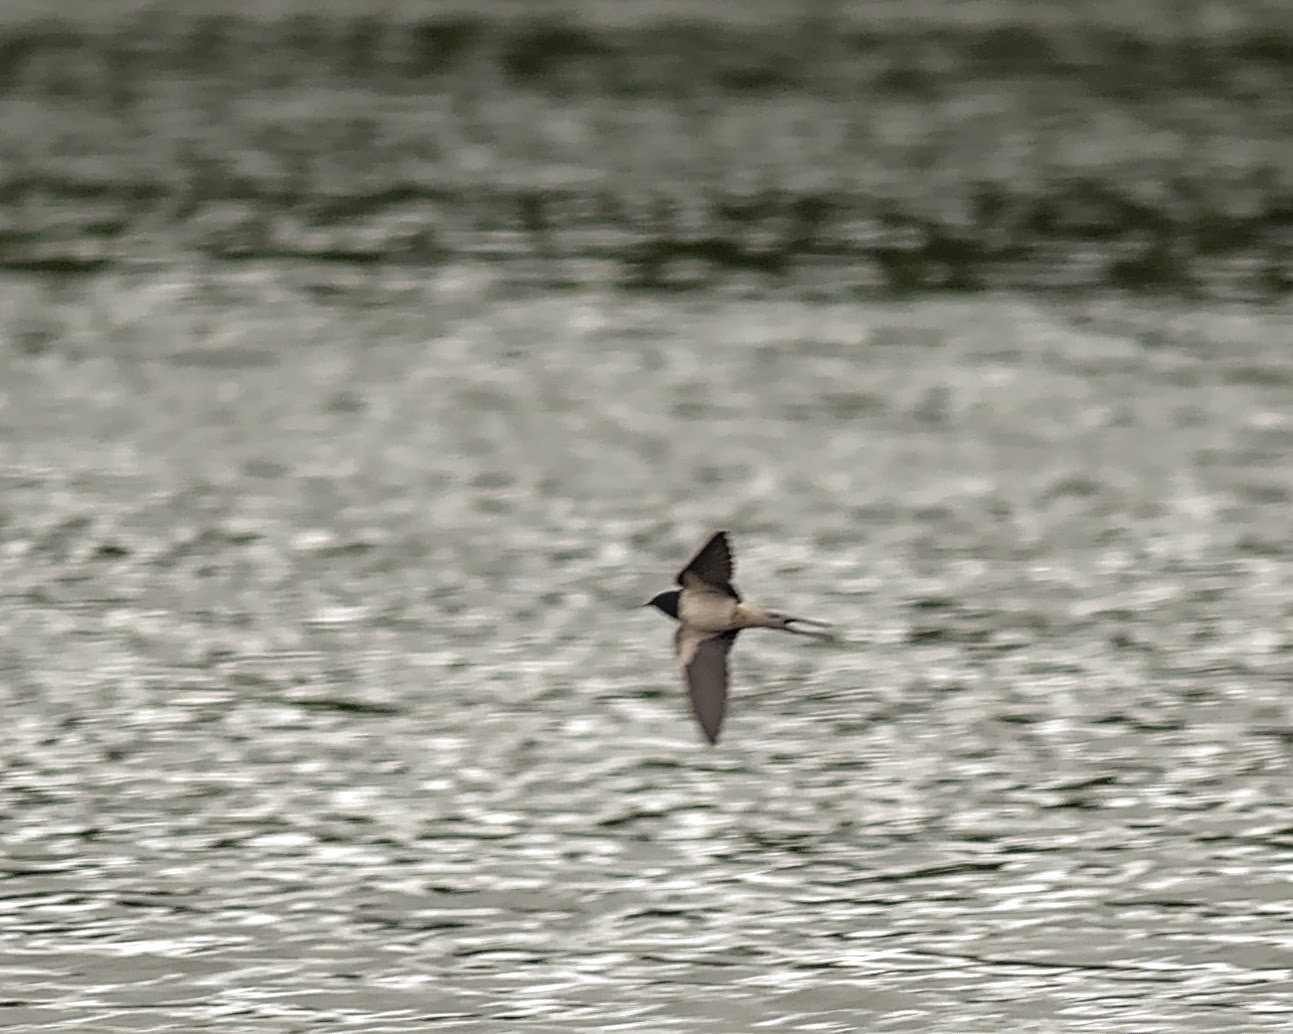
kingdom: Animalia
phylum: Chordata
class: Aves
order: Passeriformes
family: Hirundinidae
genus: Hirundo
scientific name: Hirundo rustica
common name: Barn swallow
